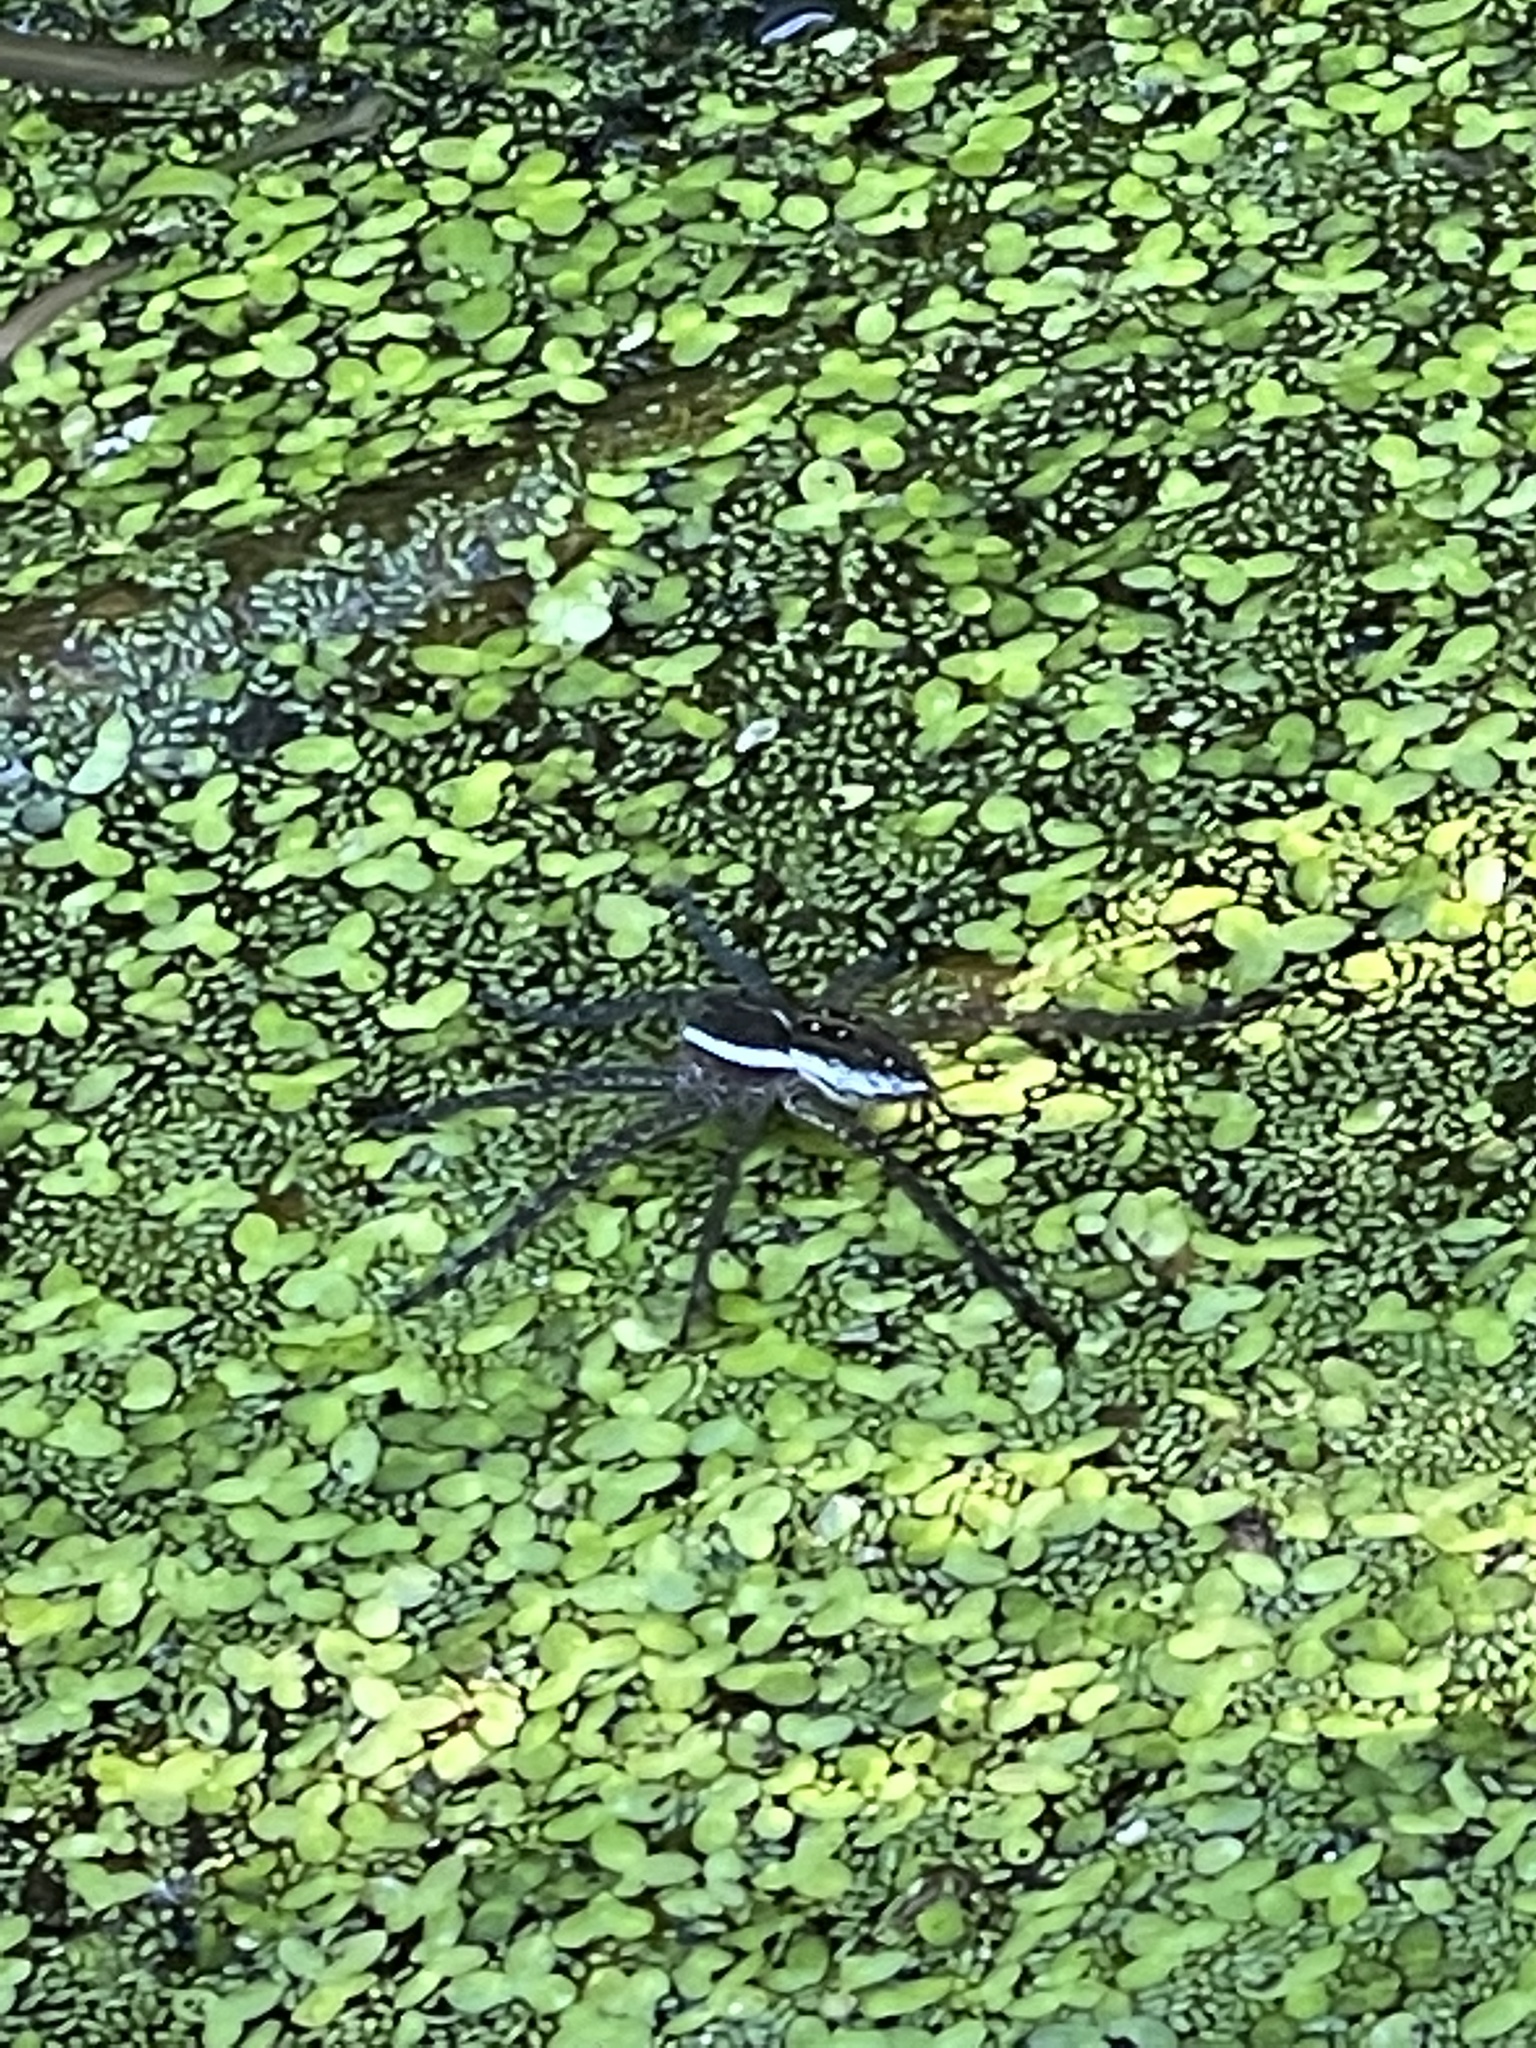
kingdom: Animalia
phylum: Arthropoda
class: Arachnida
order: Araneae
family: Pisauridae
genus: Dolomedes
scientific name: Dolomedes triton
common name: Six-spotted fishing spider
